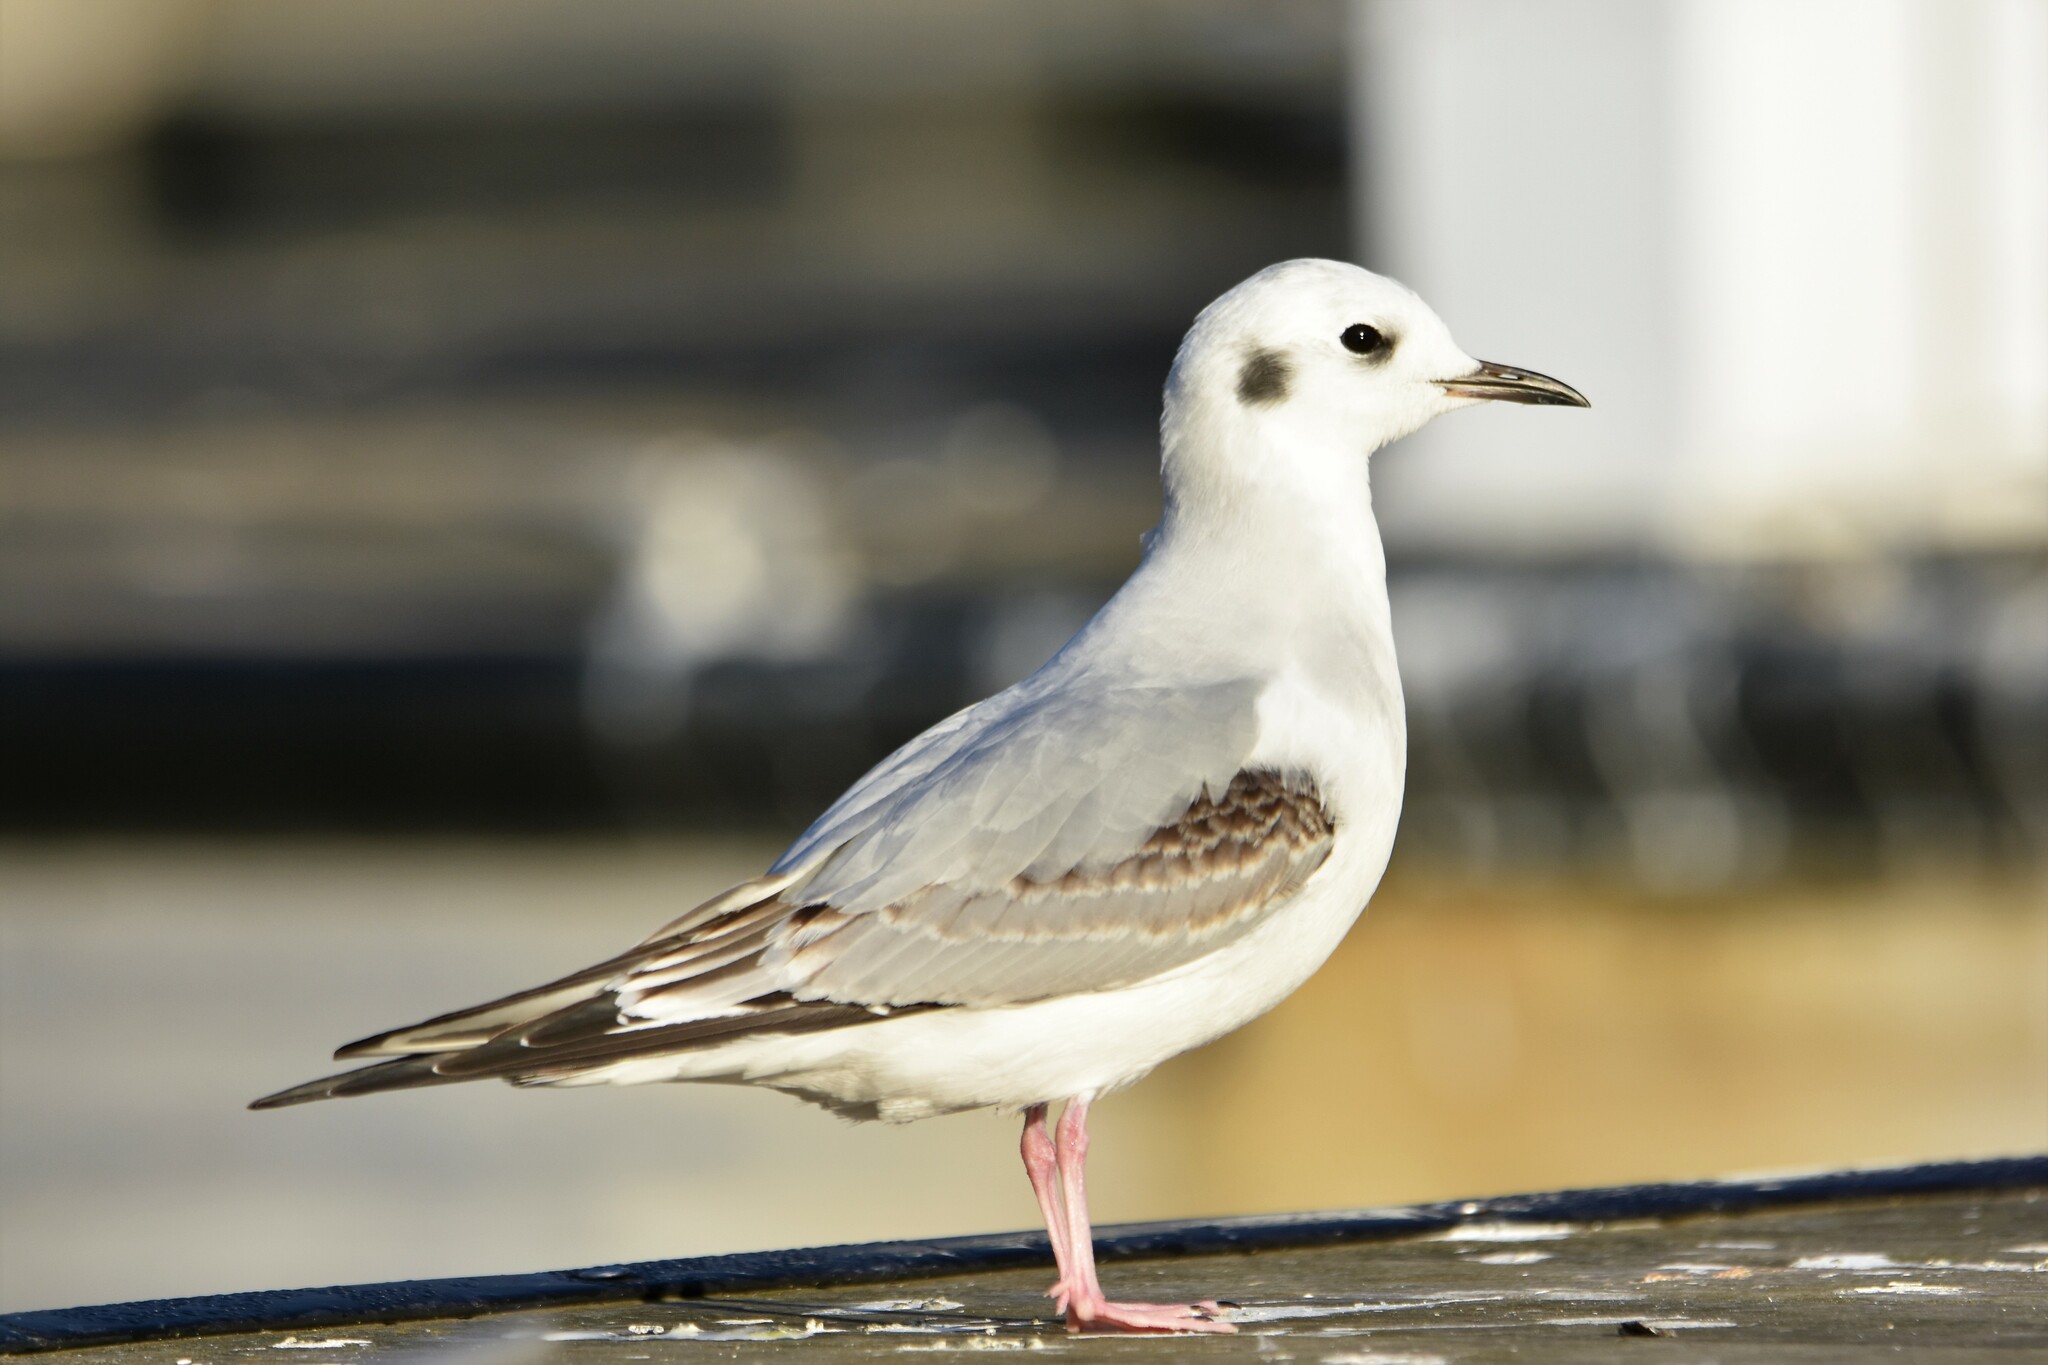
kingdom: Animalia
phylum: Chordata
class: Aves
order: Charadriiformes
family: Laridae
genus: Chroicocephalus
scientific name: Chroicocephalus philadelphia
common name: Bonaparte's gull
